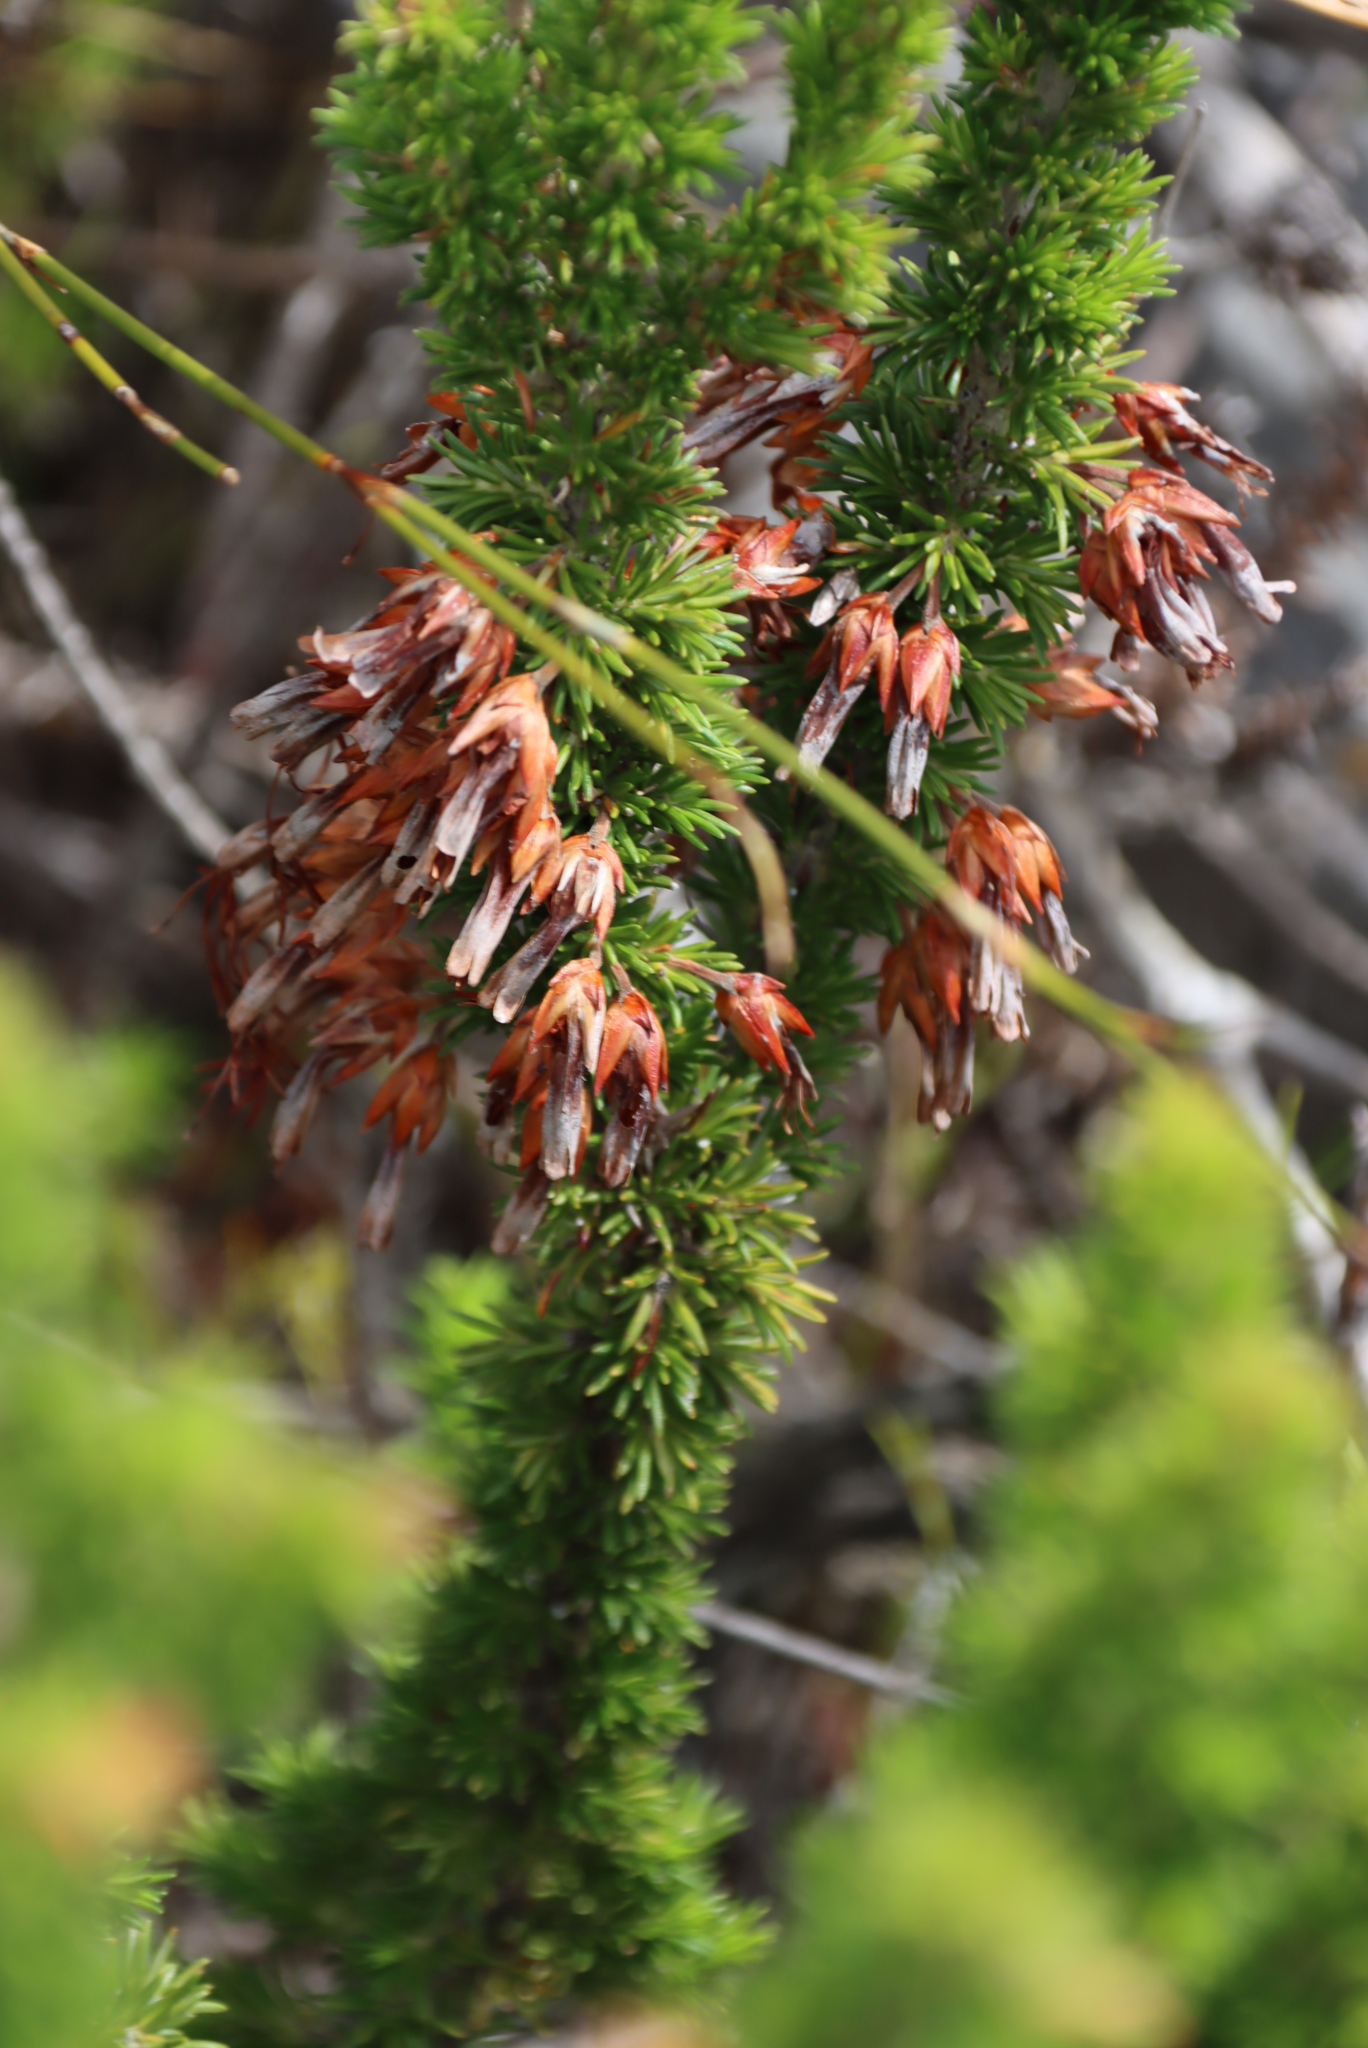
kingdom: Plantae
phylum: Tracheophyta
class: Magnoliopsida
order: Ericales
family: Ericaceae
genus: Erica
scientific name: Erica coccinea
